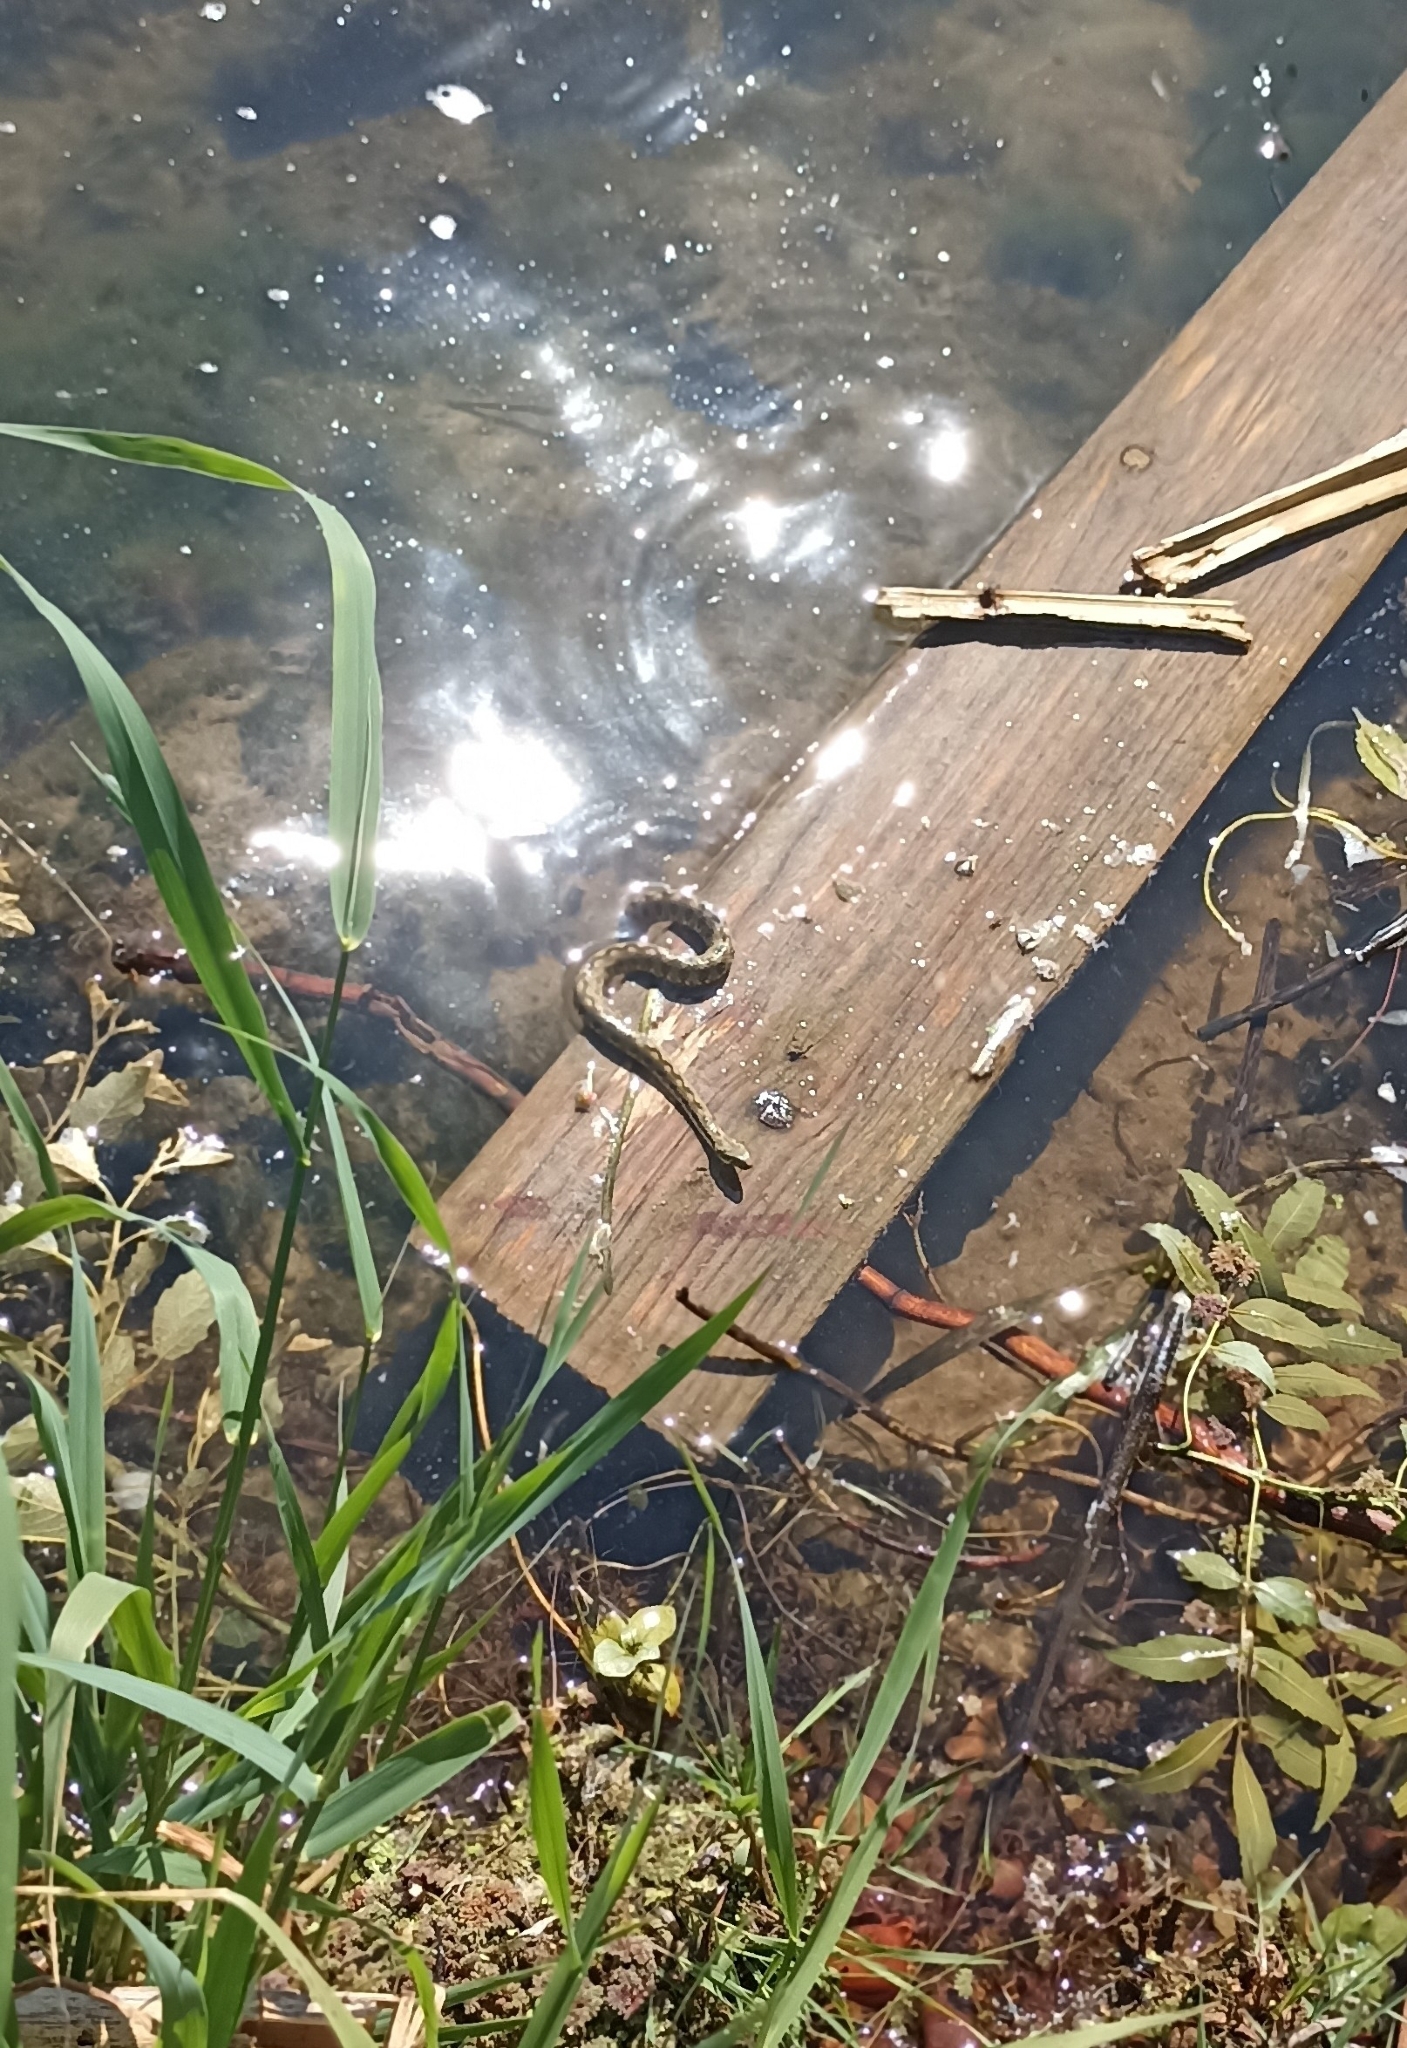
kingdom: Animalia
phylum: Chordata
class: Squamata
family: Colubridae
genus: Natrix
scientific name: Natrix maura
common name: Viperine water snake
